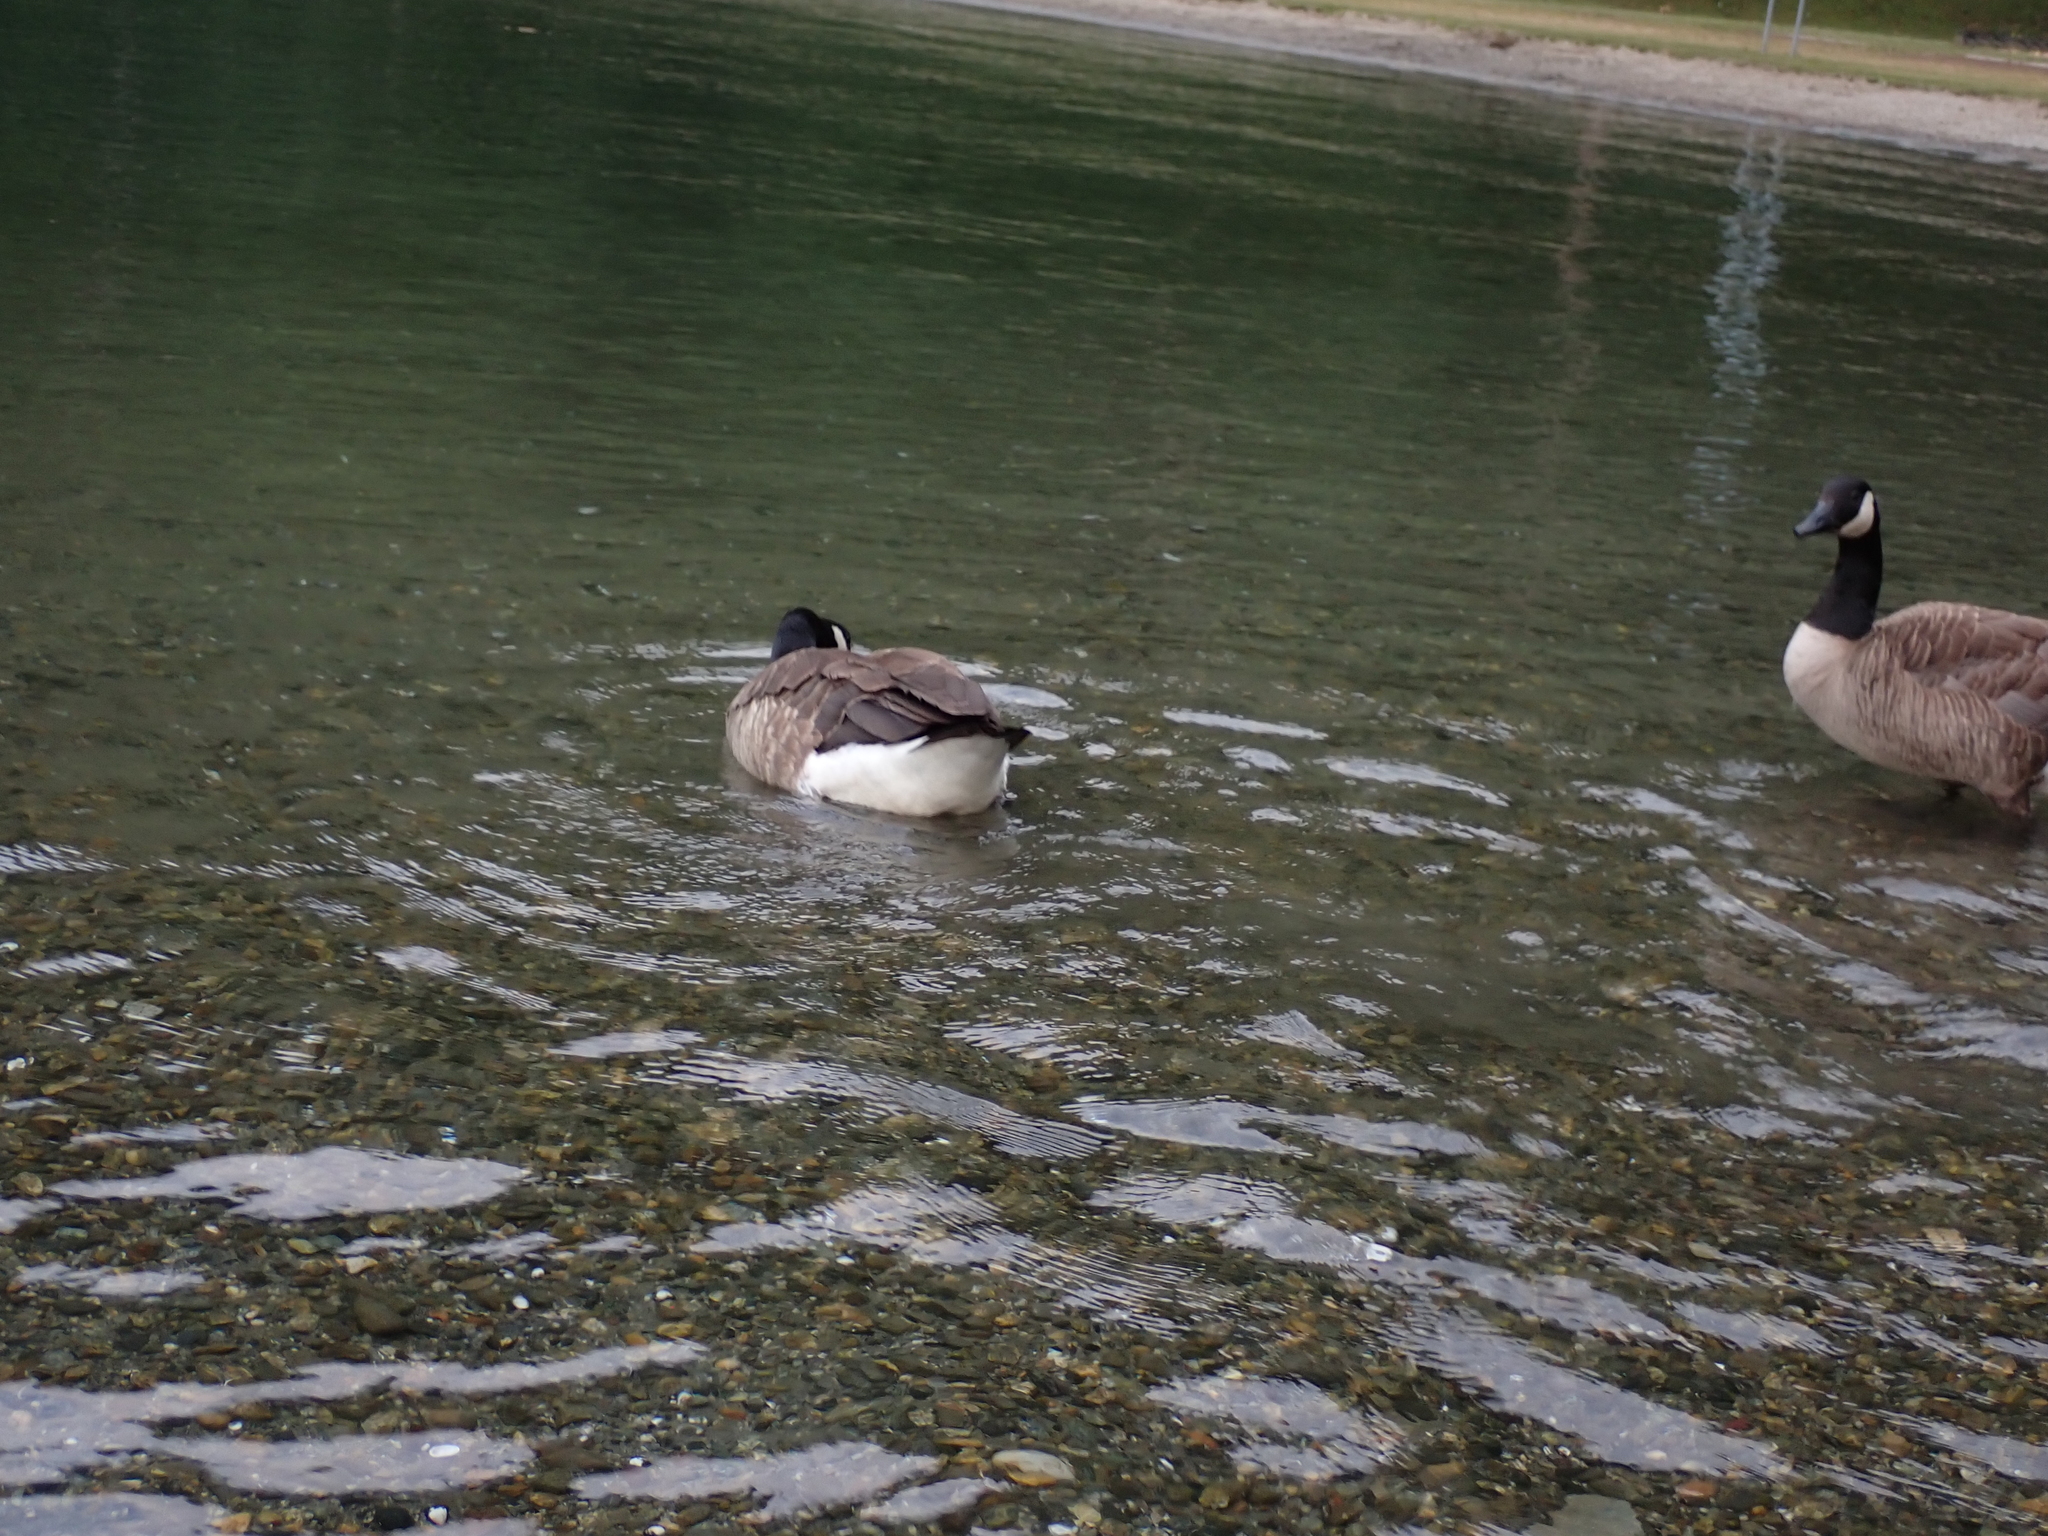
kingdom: Animalia
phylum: Chordata
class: Aves
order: Anseriformes
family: Anatidae
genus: Branta
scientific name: Branta canadensis
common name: Canada goose
